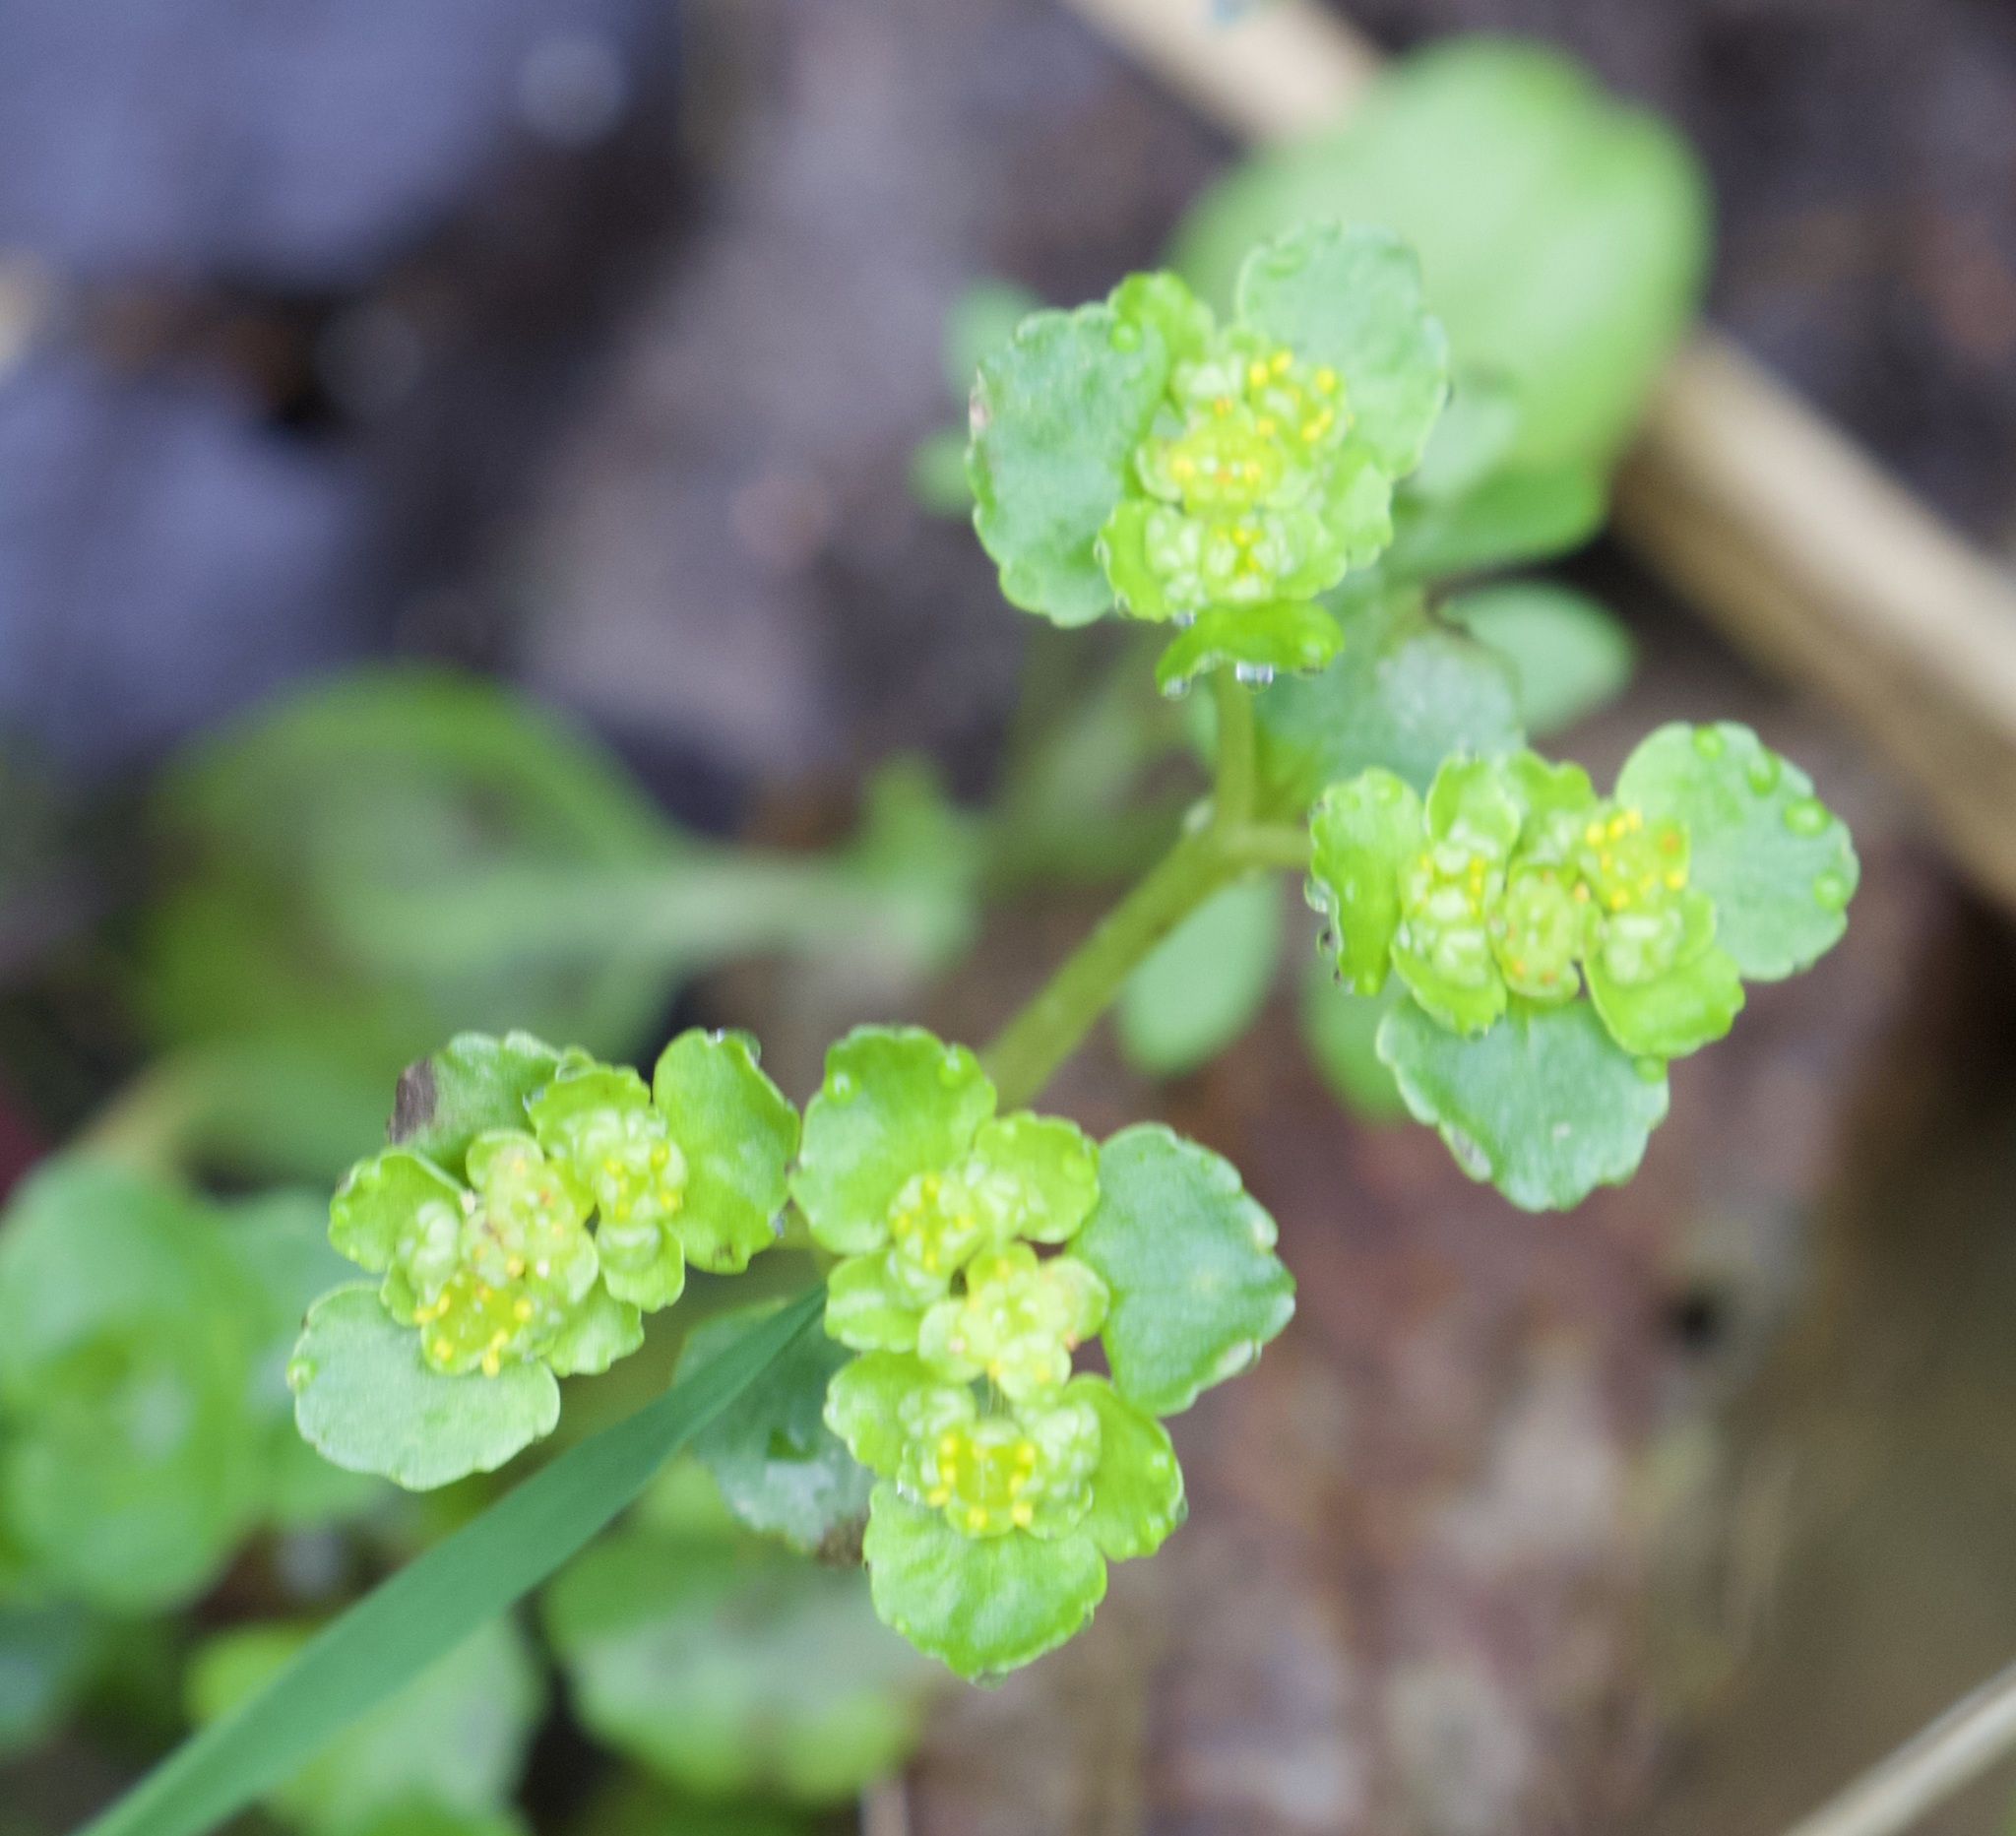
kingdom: Plantae
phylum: Tracheophyta
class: Magnoliopsida
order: Saxifragales
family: Saxifragaceae
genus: Chrysosplenium
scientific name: Chrysosplenium oppositifolium
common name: Opposite-leaved golden-saxifrage
